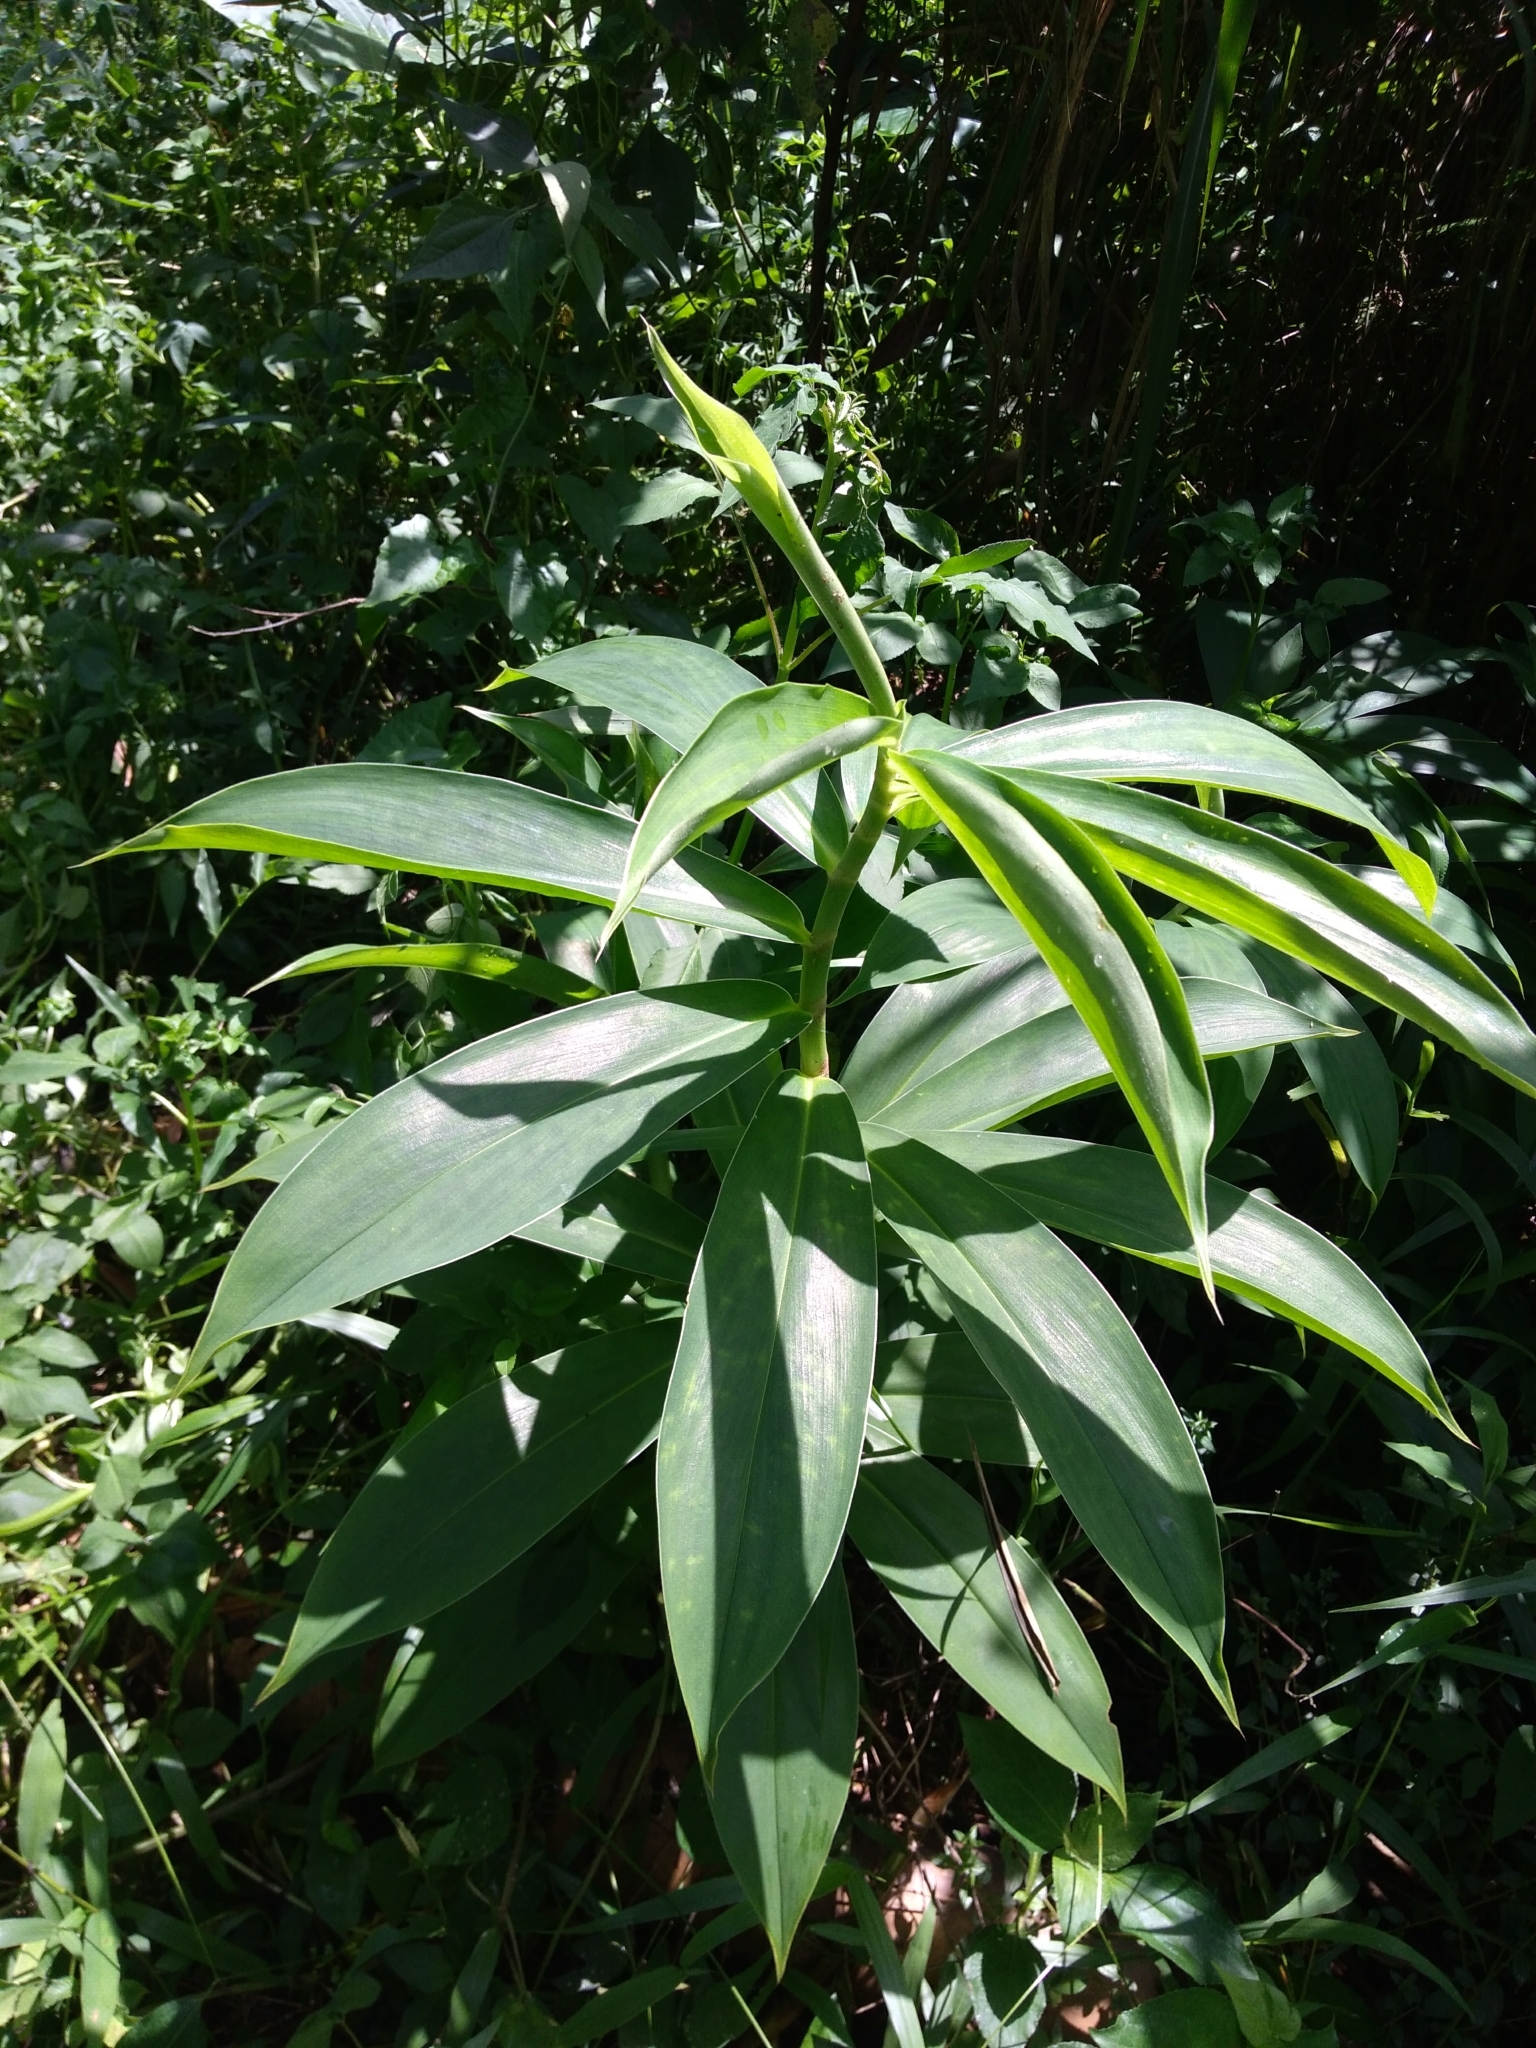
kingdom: Plantae
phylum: Tracheophyta
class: Liliopsida
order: Zingiberales
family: Costaceae
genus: Hellenia
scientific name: Hellenia speciosa
